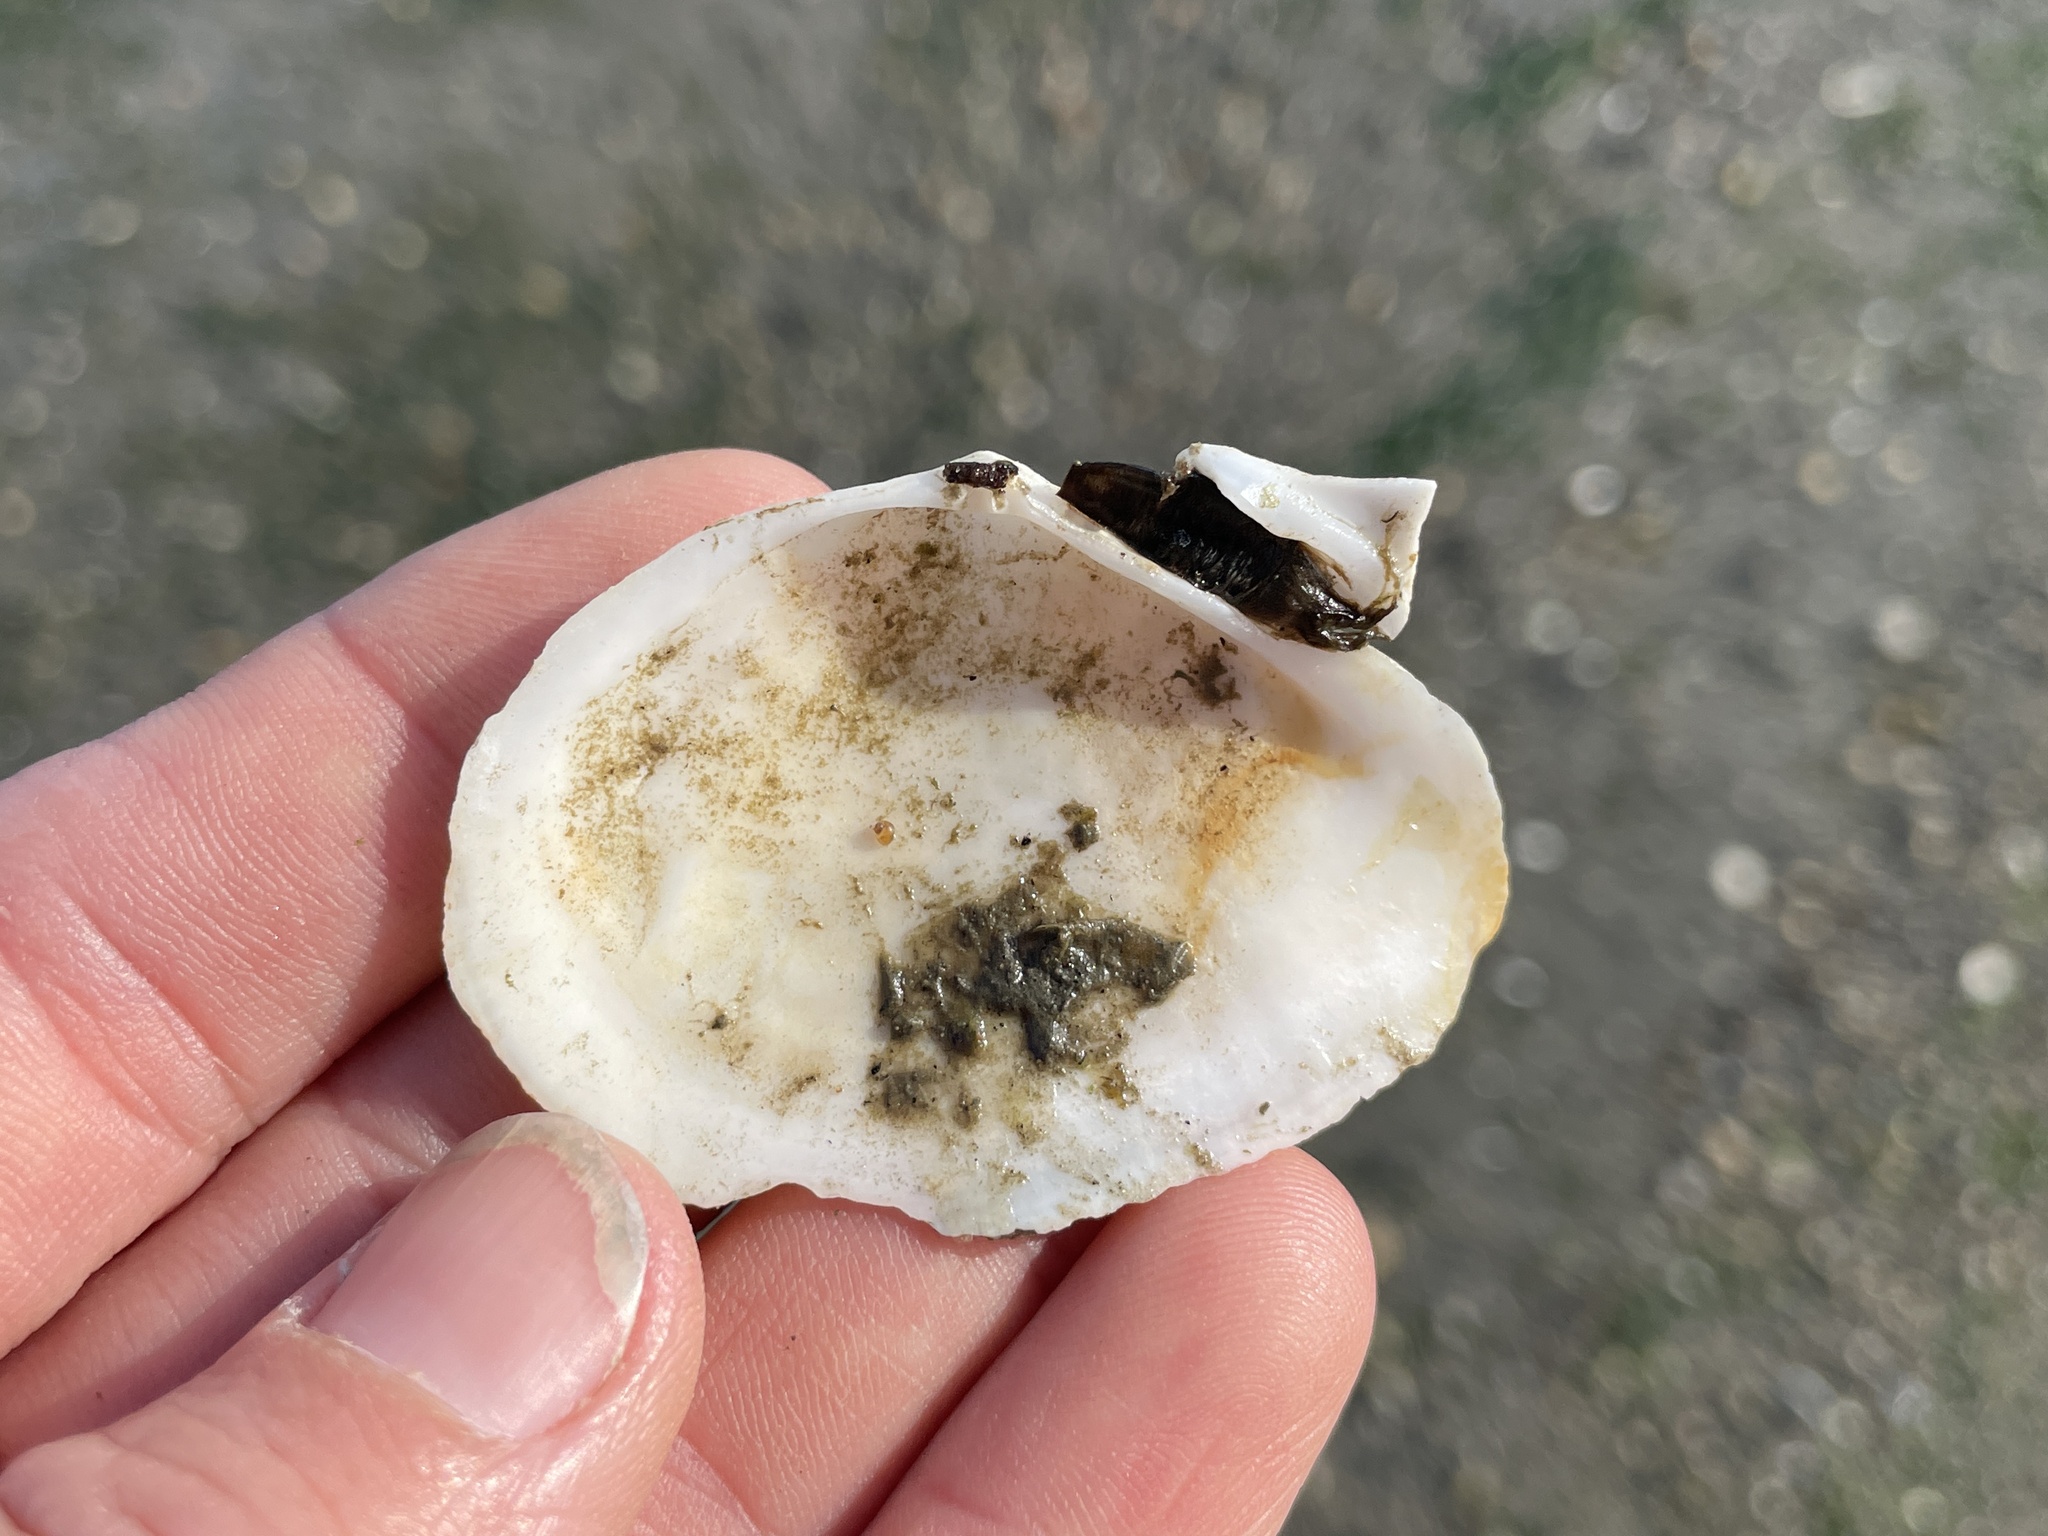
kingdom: Animalia
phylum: Mollusca
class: Bivalvia
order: Cardiida
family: Tellinidae
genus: Macoma
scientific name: Macoma nasuta
